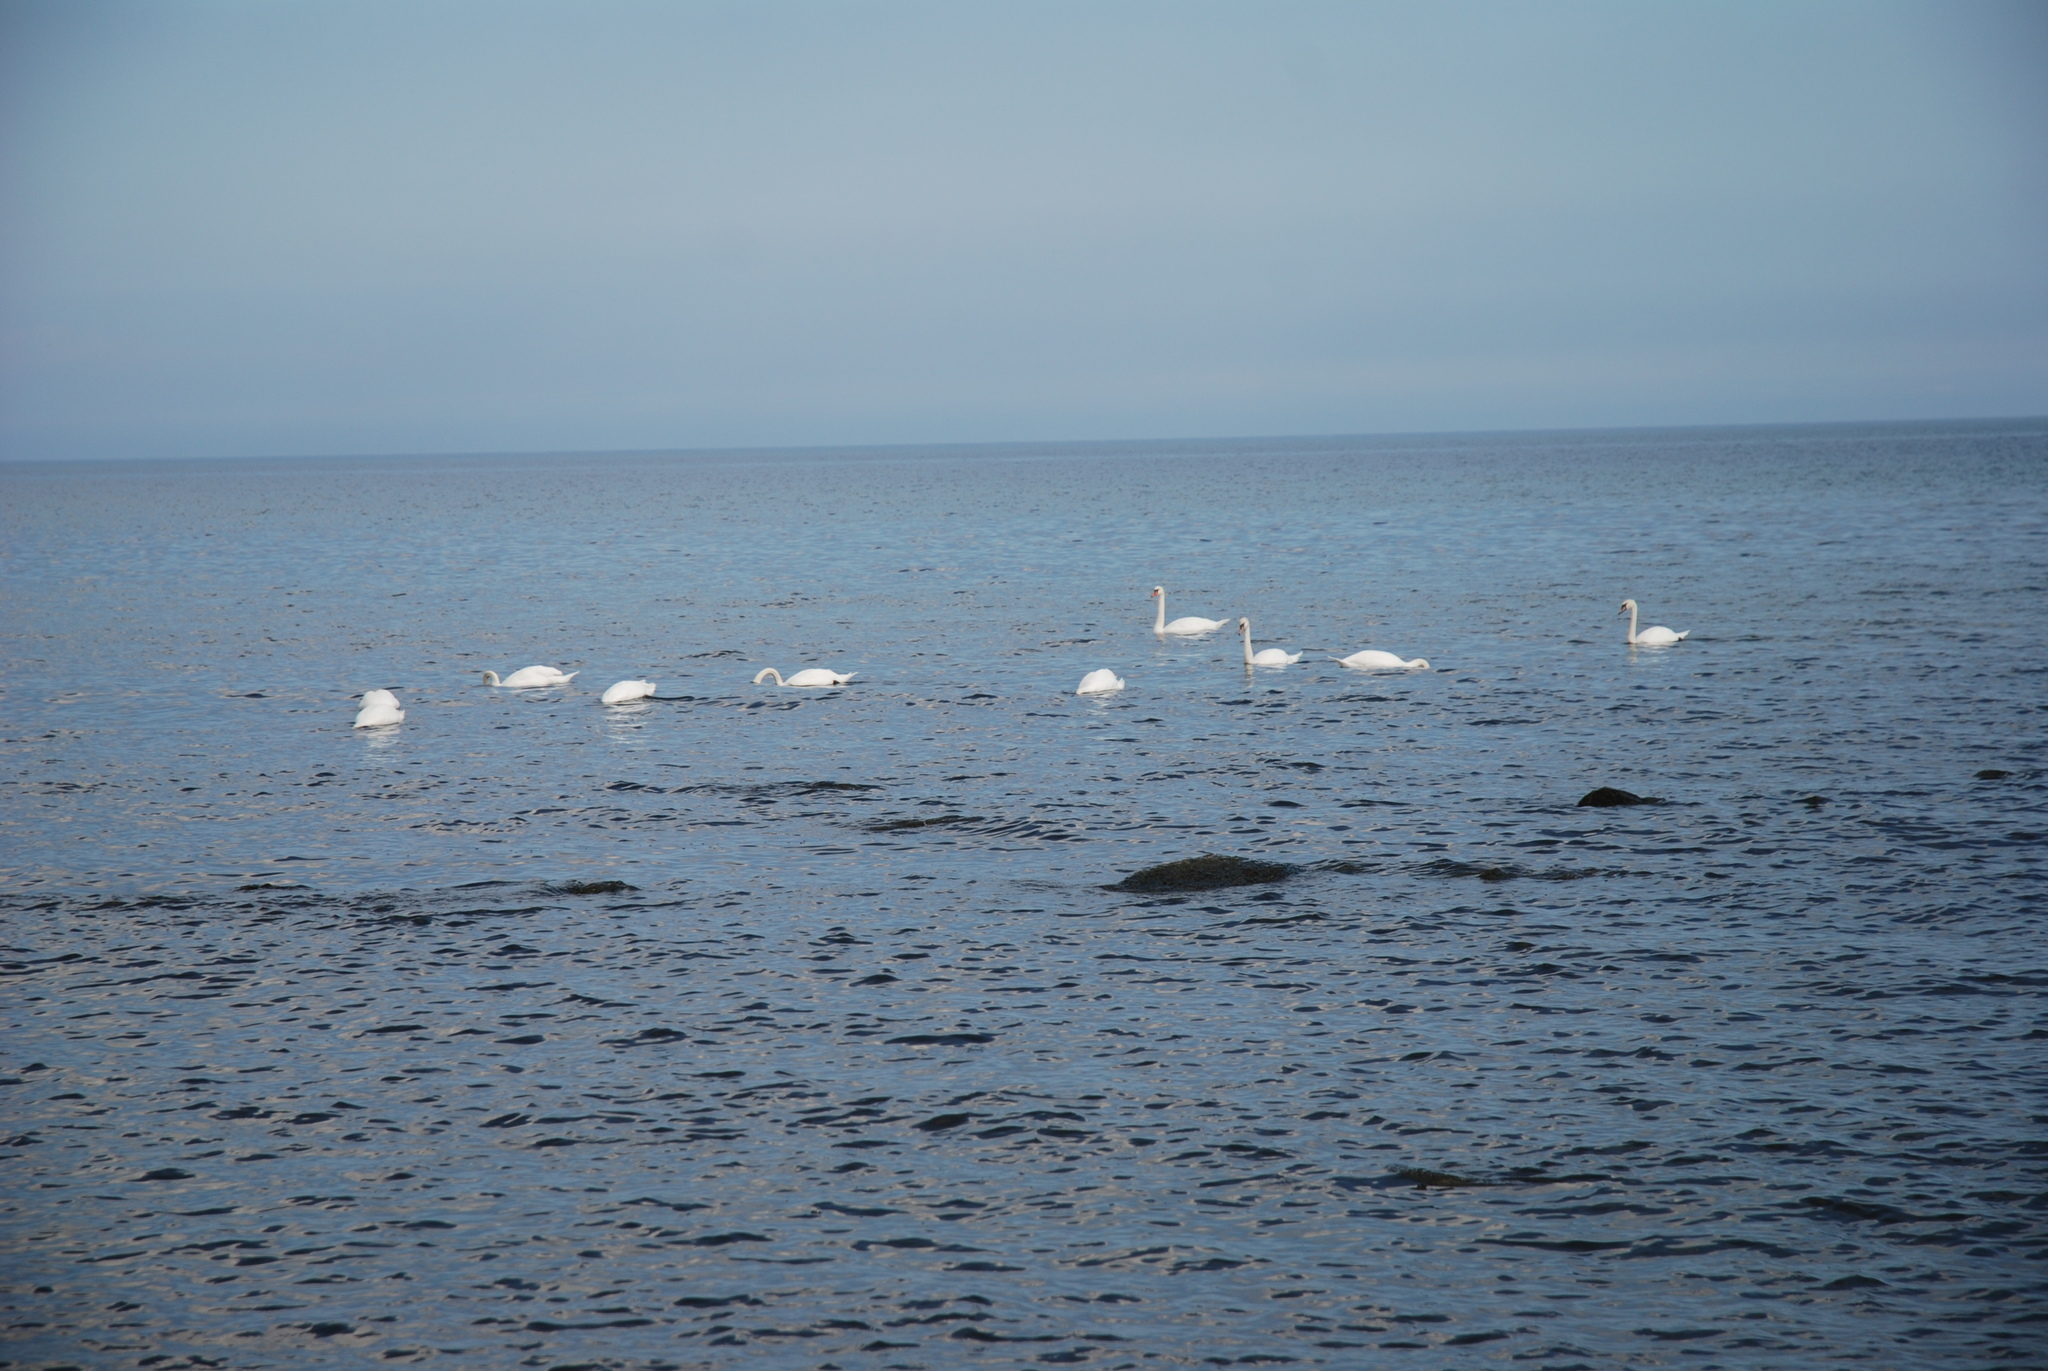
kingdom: Animalia
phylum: Chordata
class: Aves
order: Anseriformes
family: Anatidae
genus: Cygnus
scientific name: Cygnus olor
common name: Mute swan
